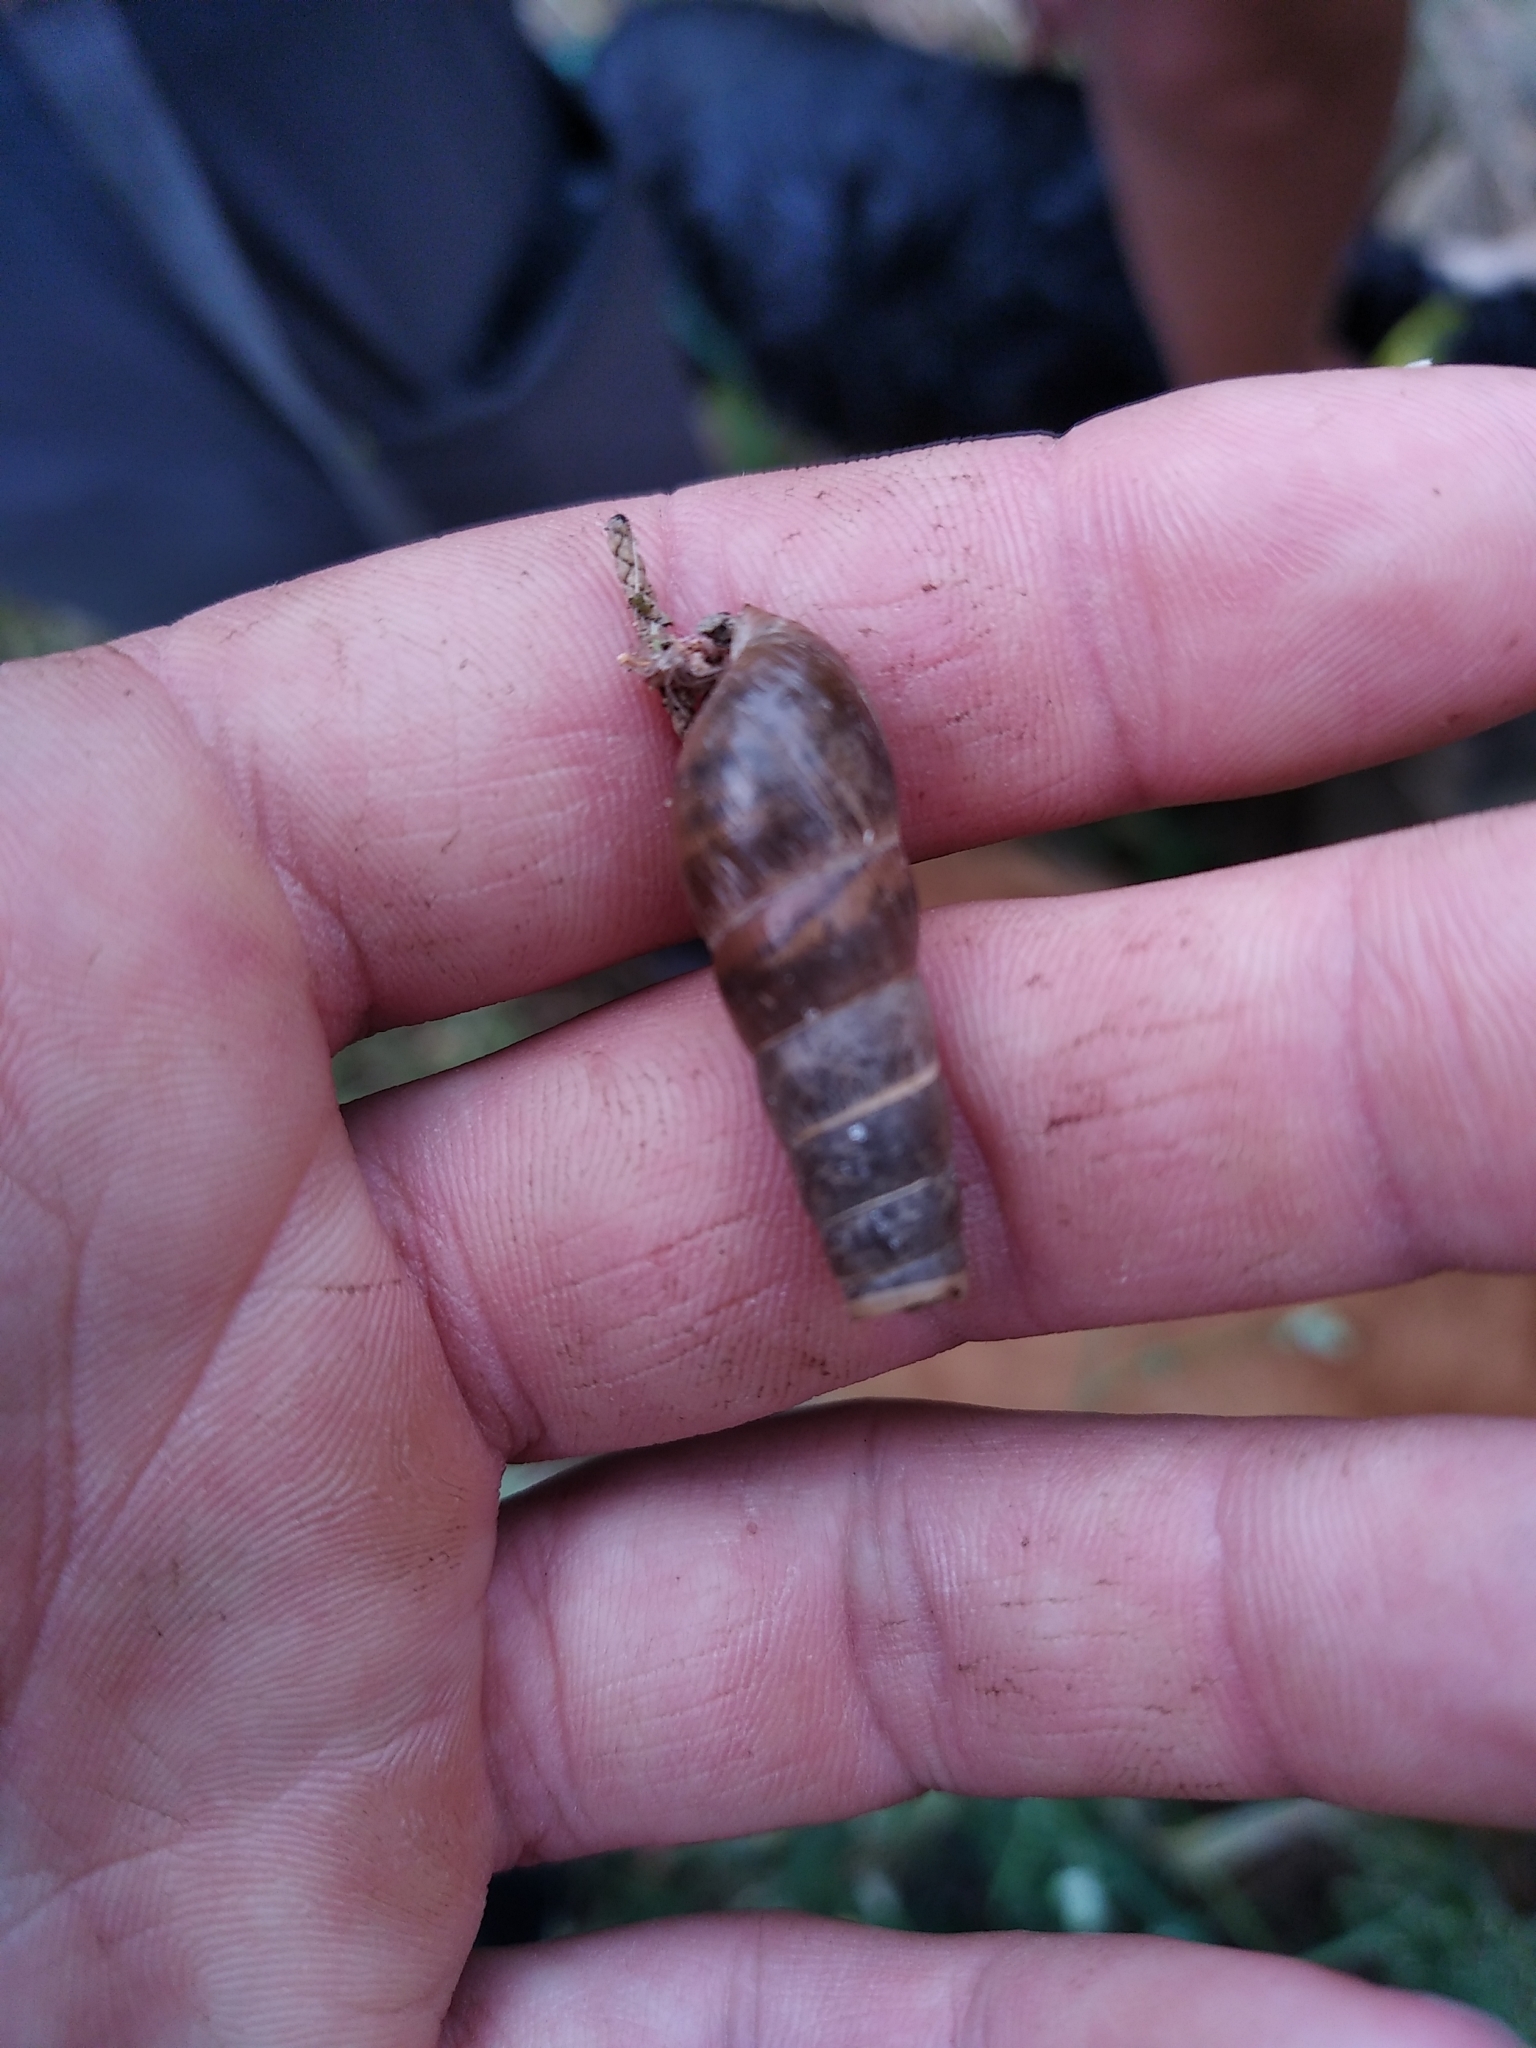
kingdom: Animalia
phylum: Mollusca
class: Gastropoda
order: Stylommatophora
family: Achatinidae
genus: Rumina
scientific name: Rumina decollata
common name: Decollate snail
